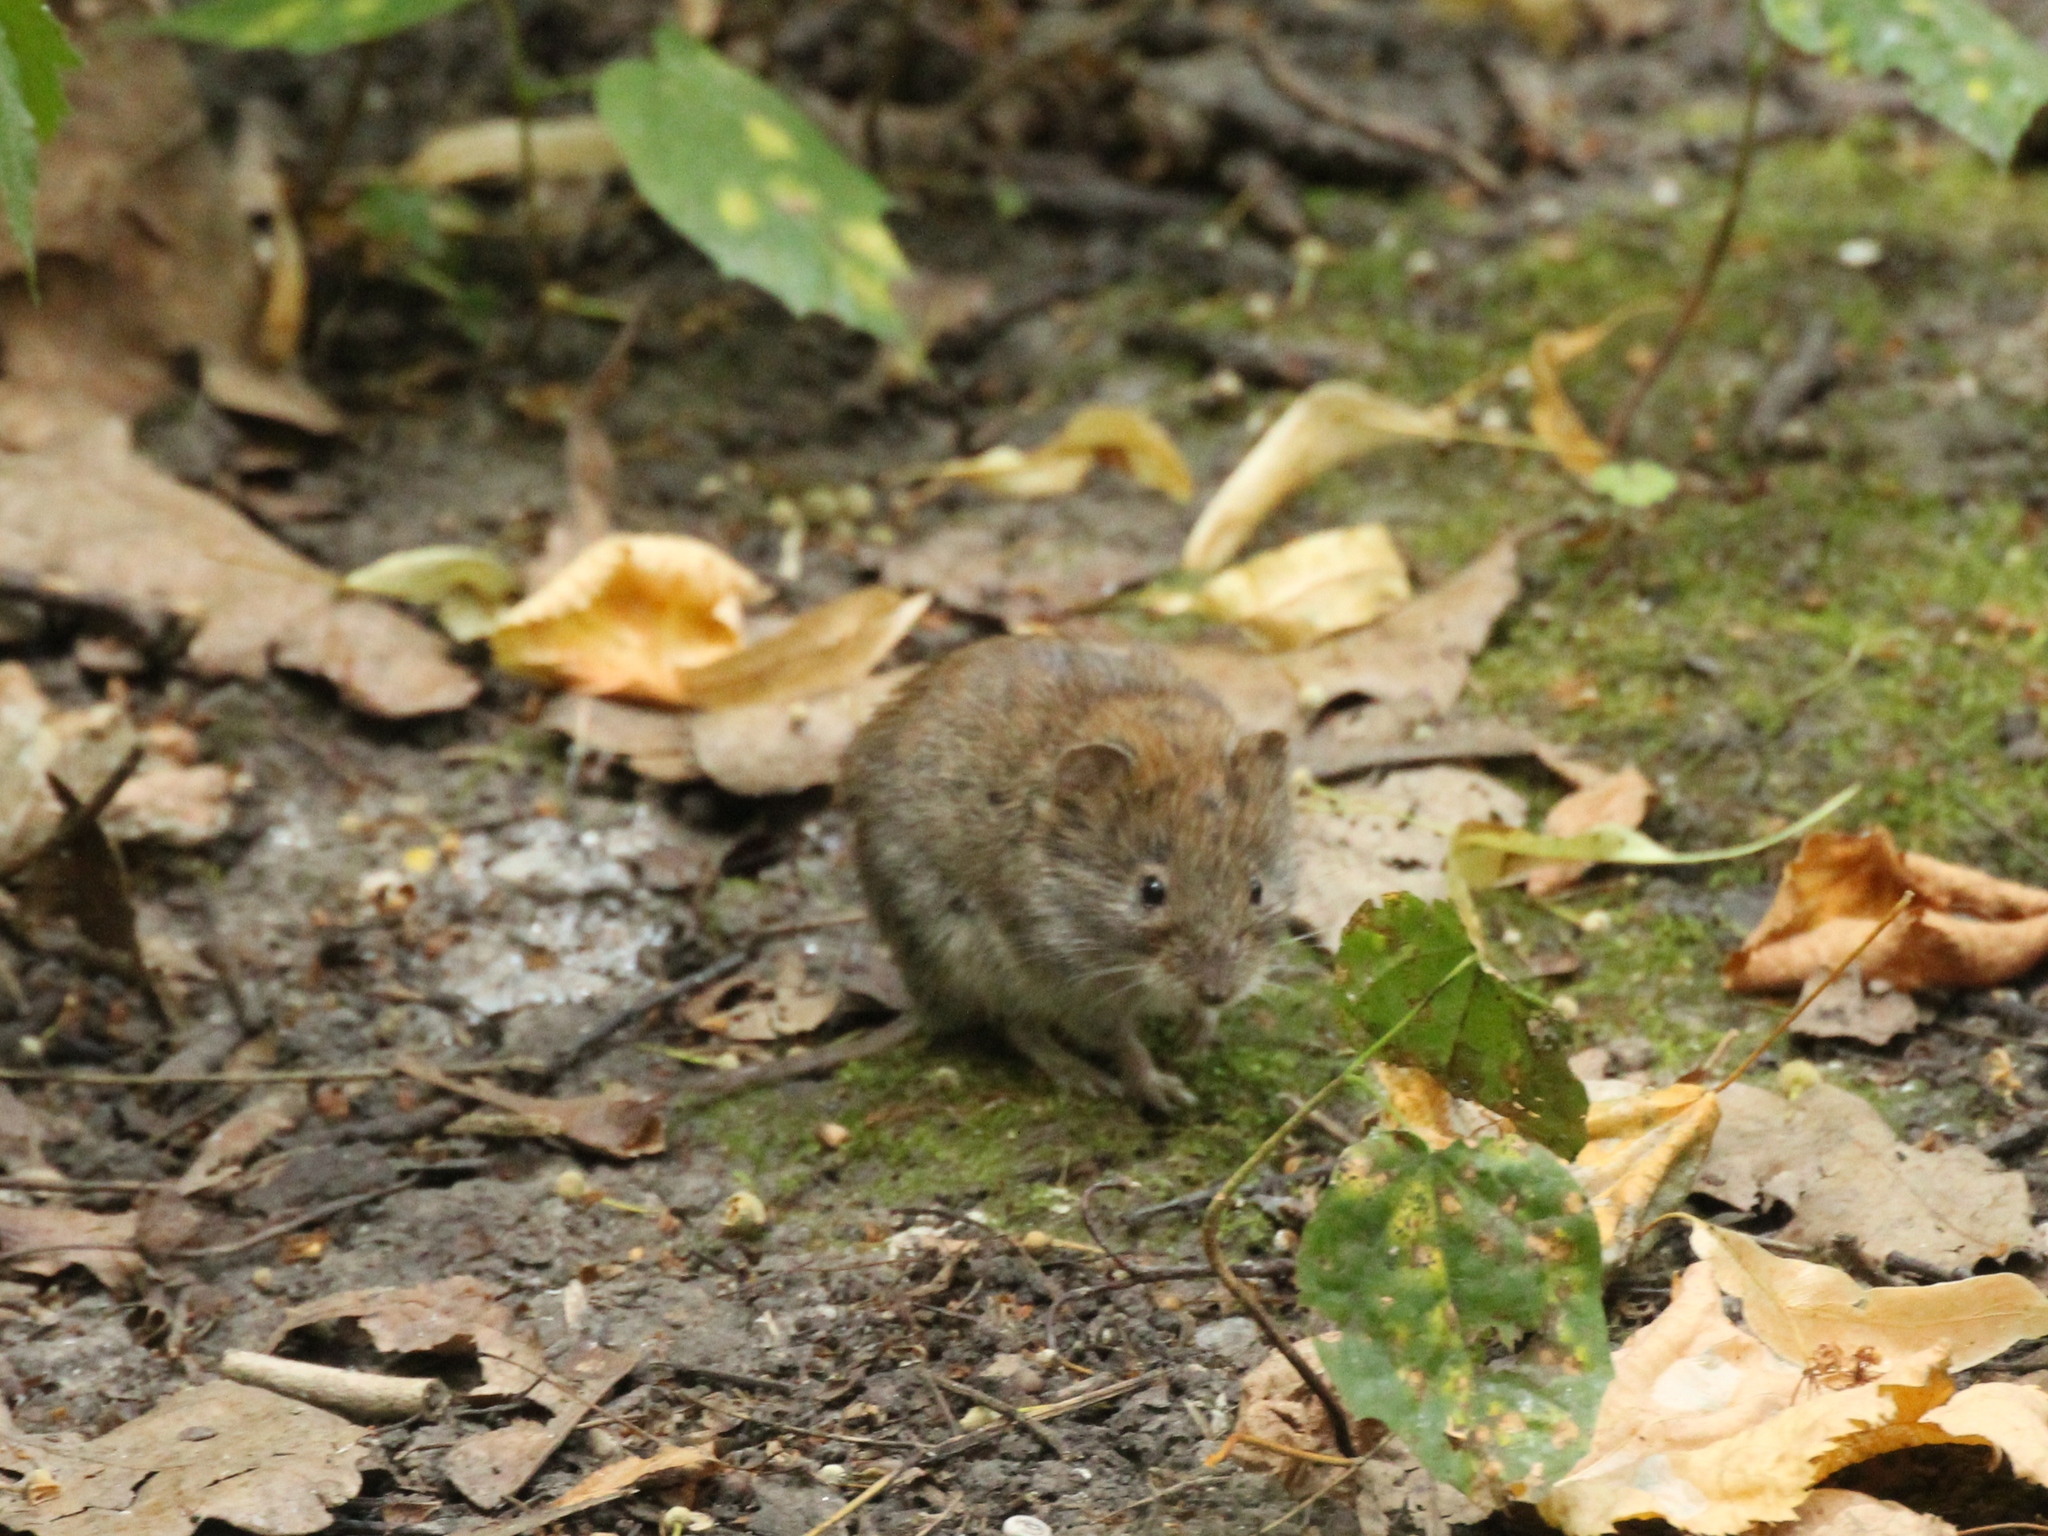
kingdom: Animalia
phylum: Chordata
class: Mammalia
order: Rodentia
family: Cricetidae
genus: Myodes
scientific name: Myodes glareolus
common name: Bank vole
